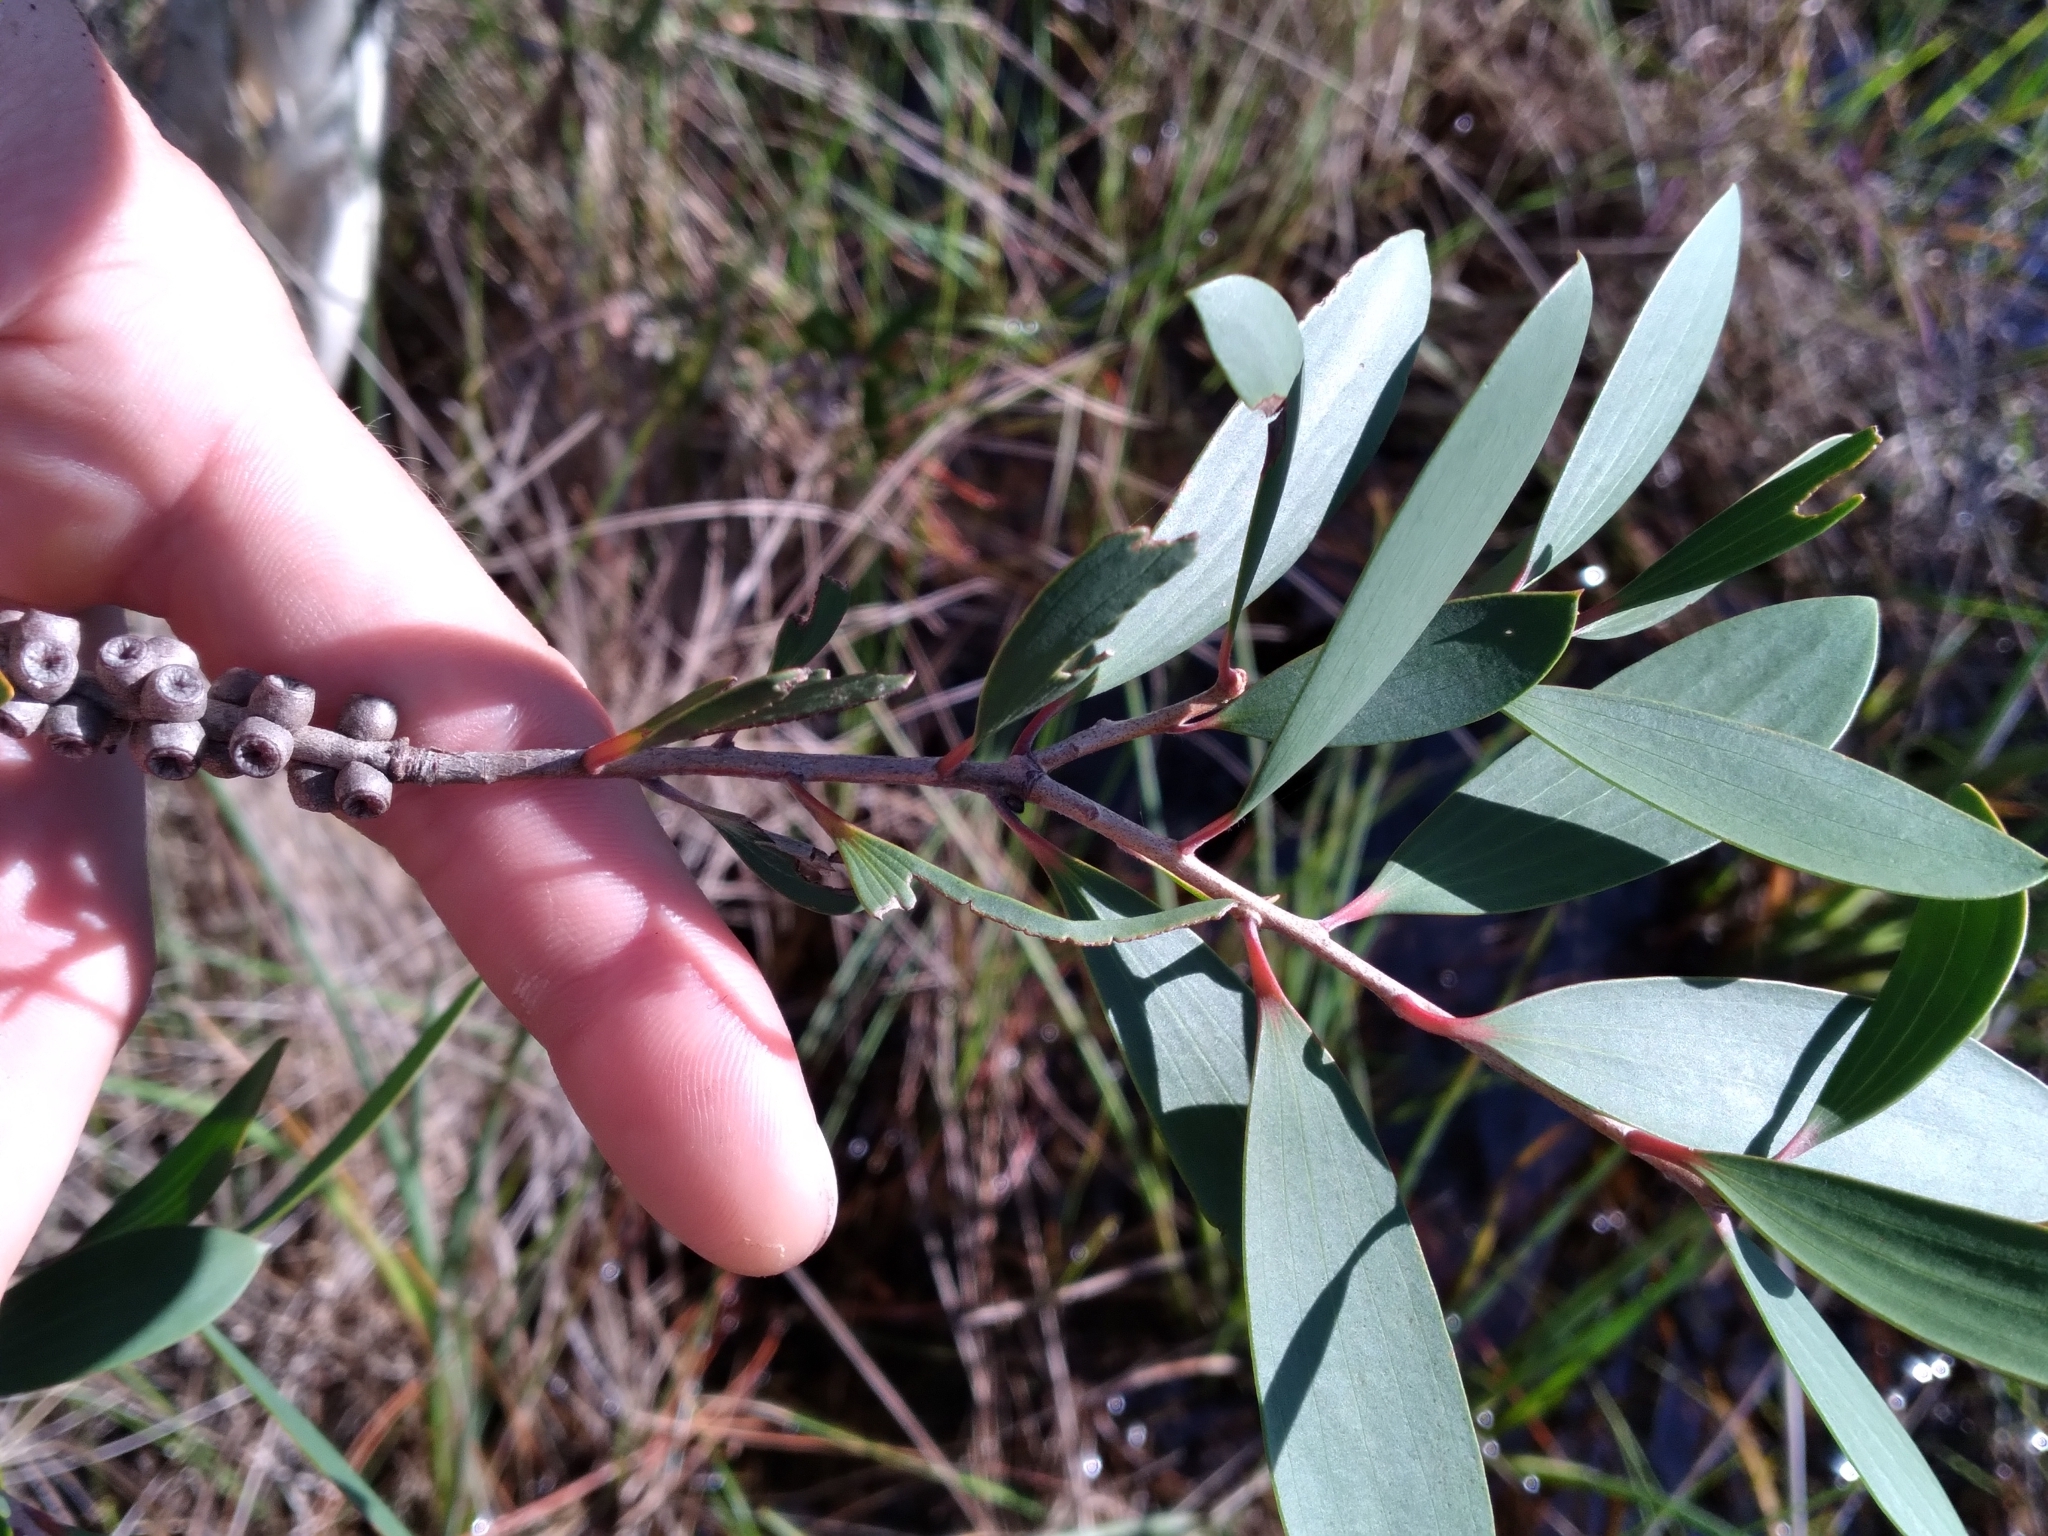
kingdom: Plantae
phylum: Tracheophyta
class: Magnoliopsida
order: Myrtales
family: Myrtaceae
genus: Melaleuca
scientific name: Melaleuca quinquenervia
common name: Punktree
